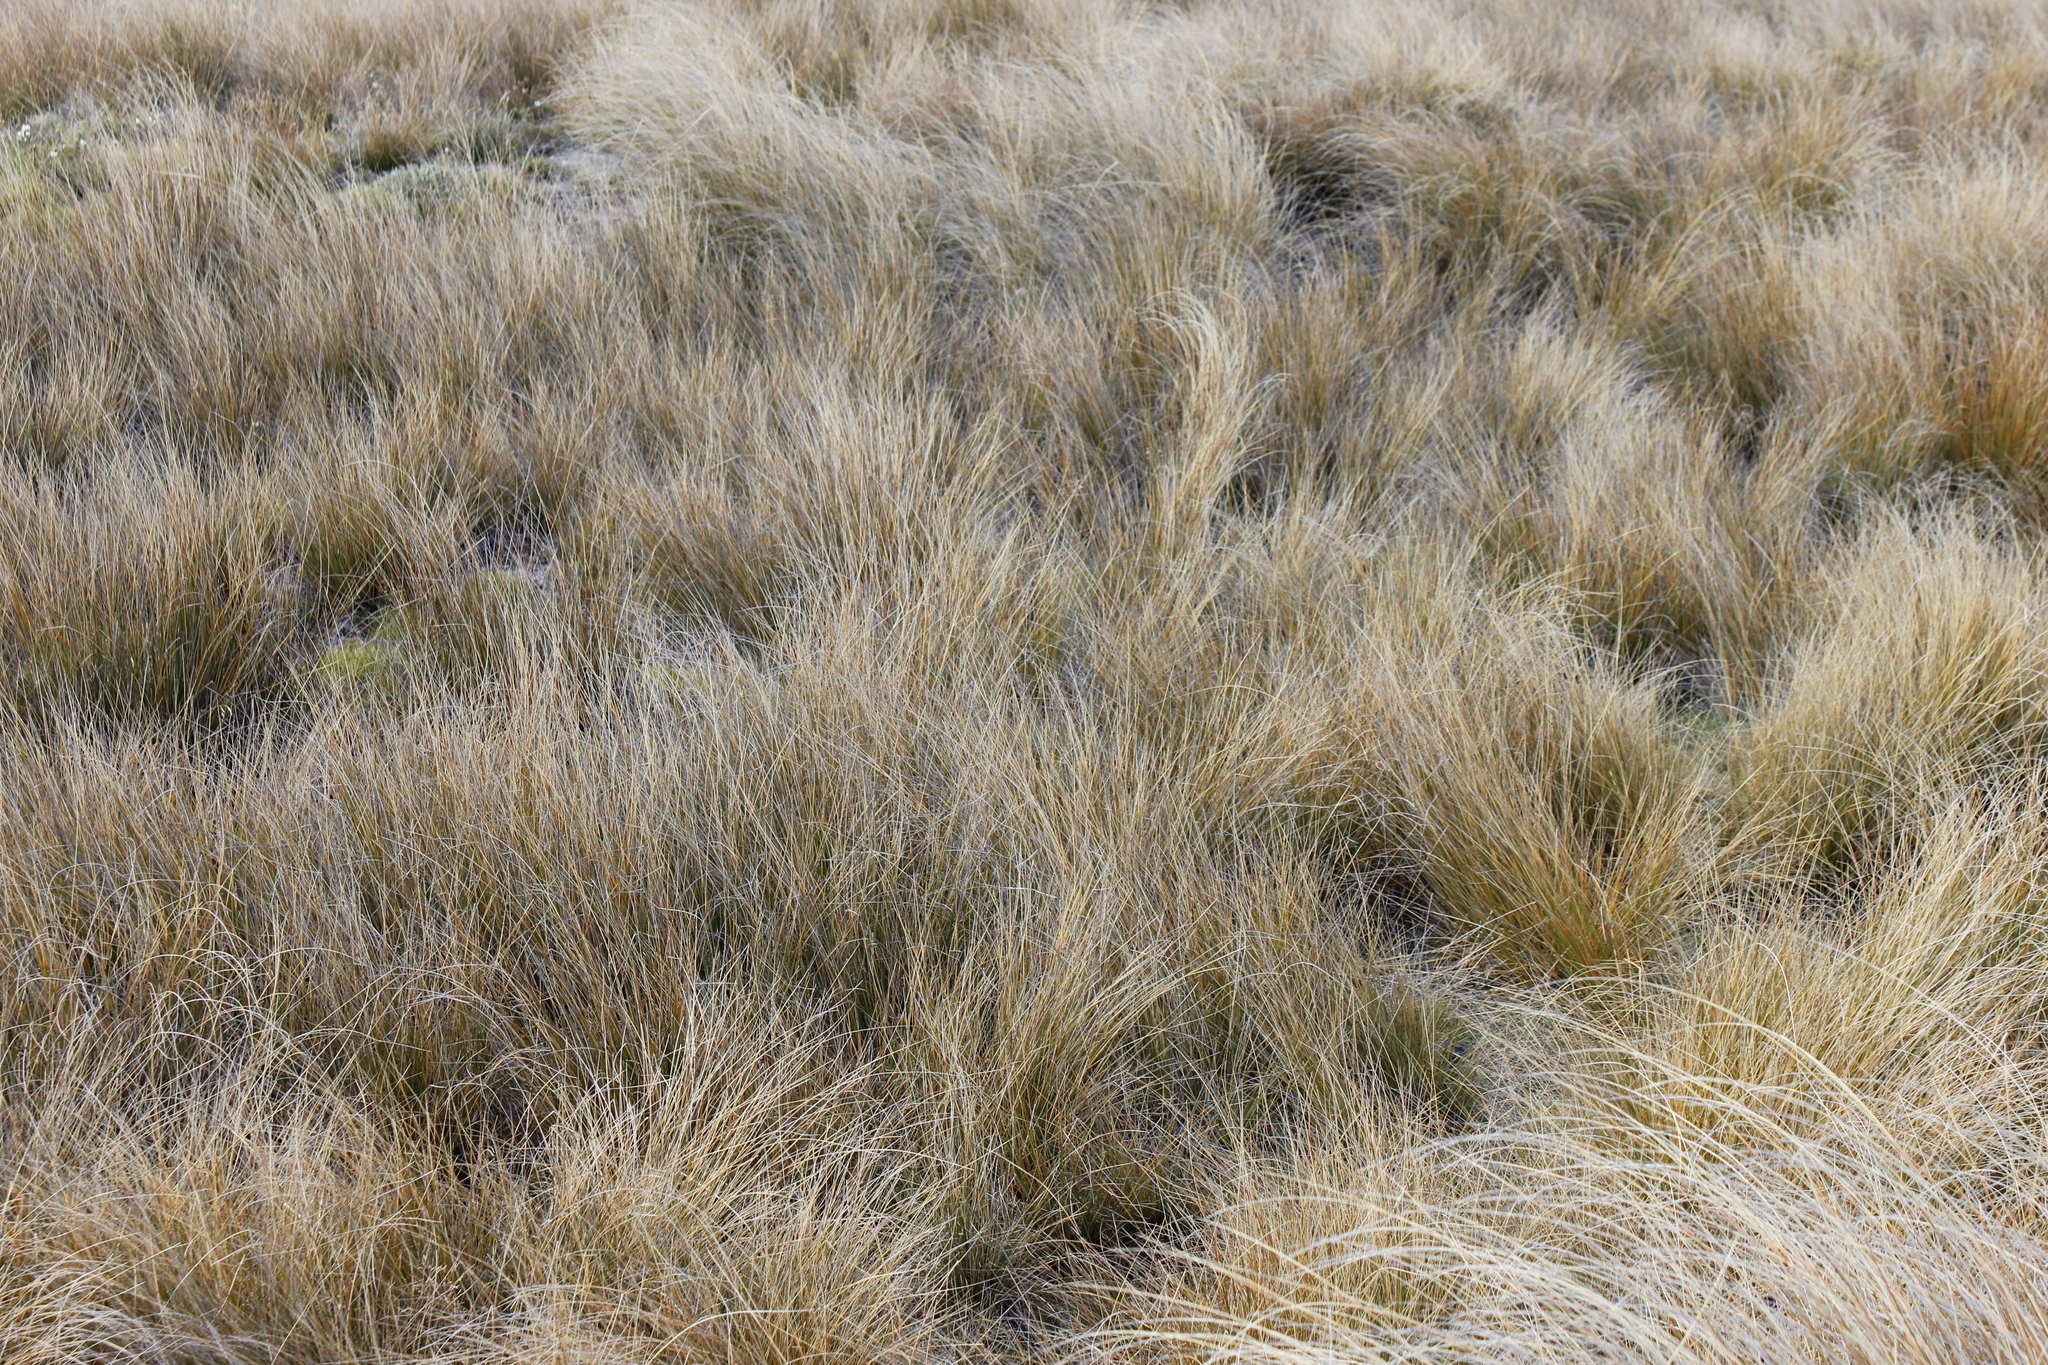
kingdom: Plantae
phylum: Tracheophyta
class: Liliopsida
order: Poales
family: Poaceae
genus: Chionochloa
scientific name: Chionochloa rubra
